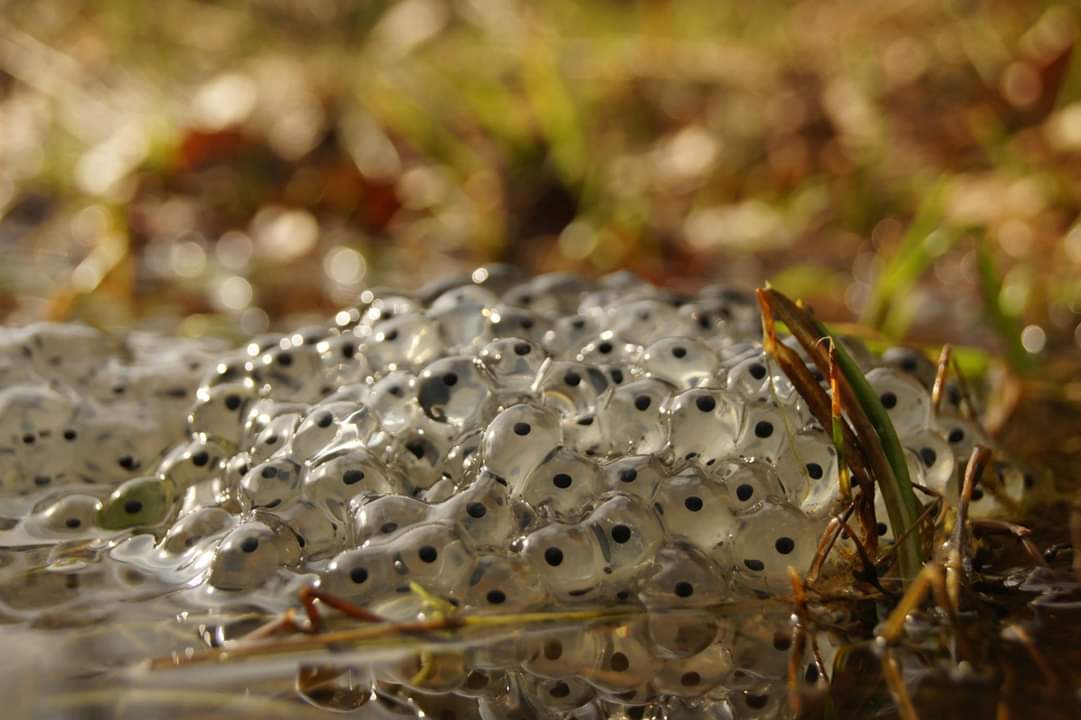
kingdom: Animalia
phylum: Chordata
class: Amphibia
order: Anura
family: Ranidae
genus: Rana
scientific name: Rana temporaria
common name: Common frog
